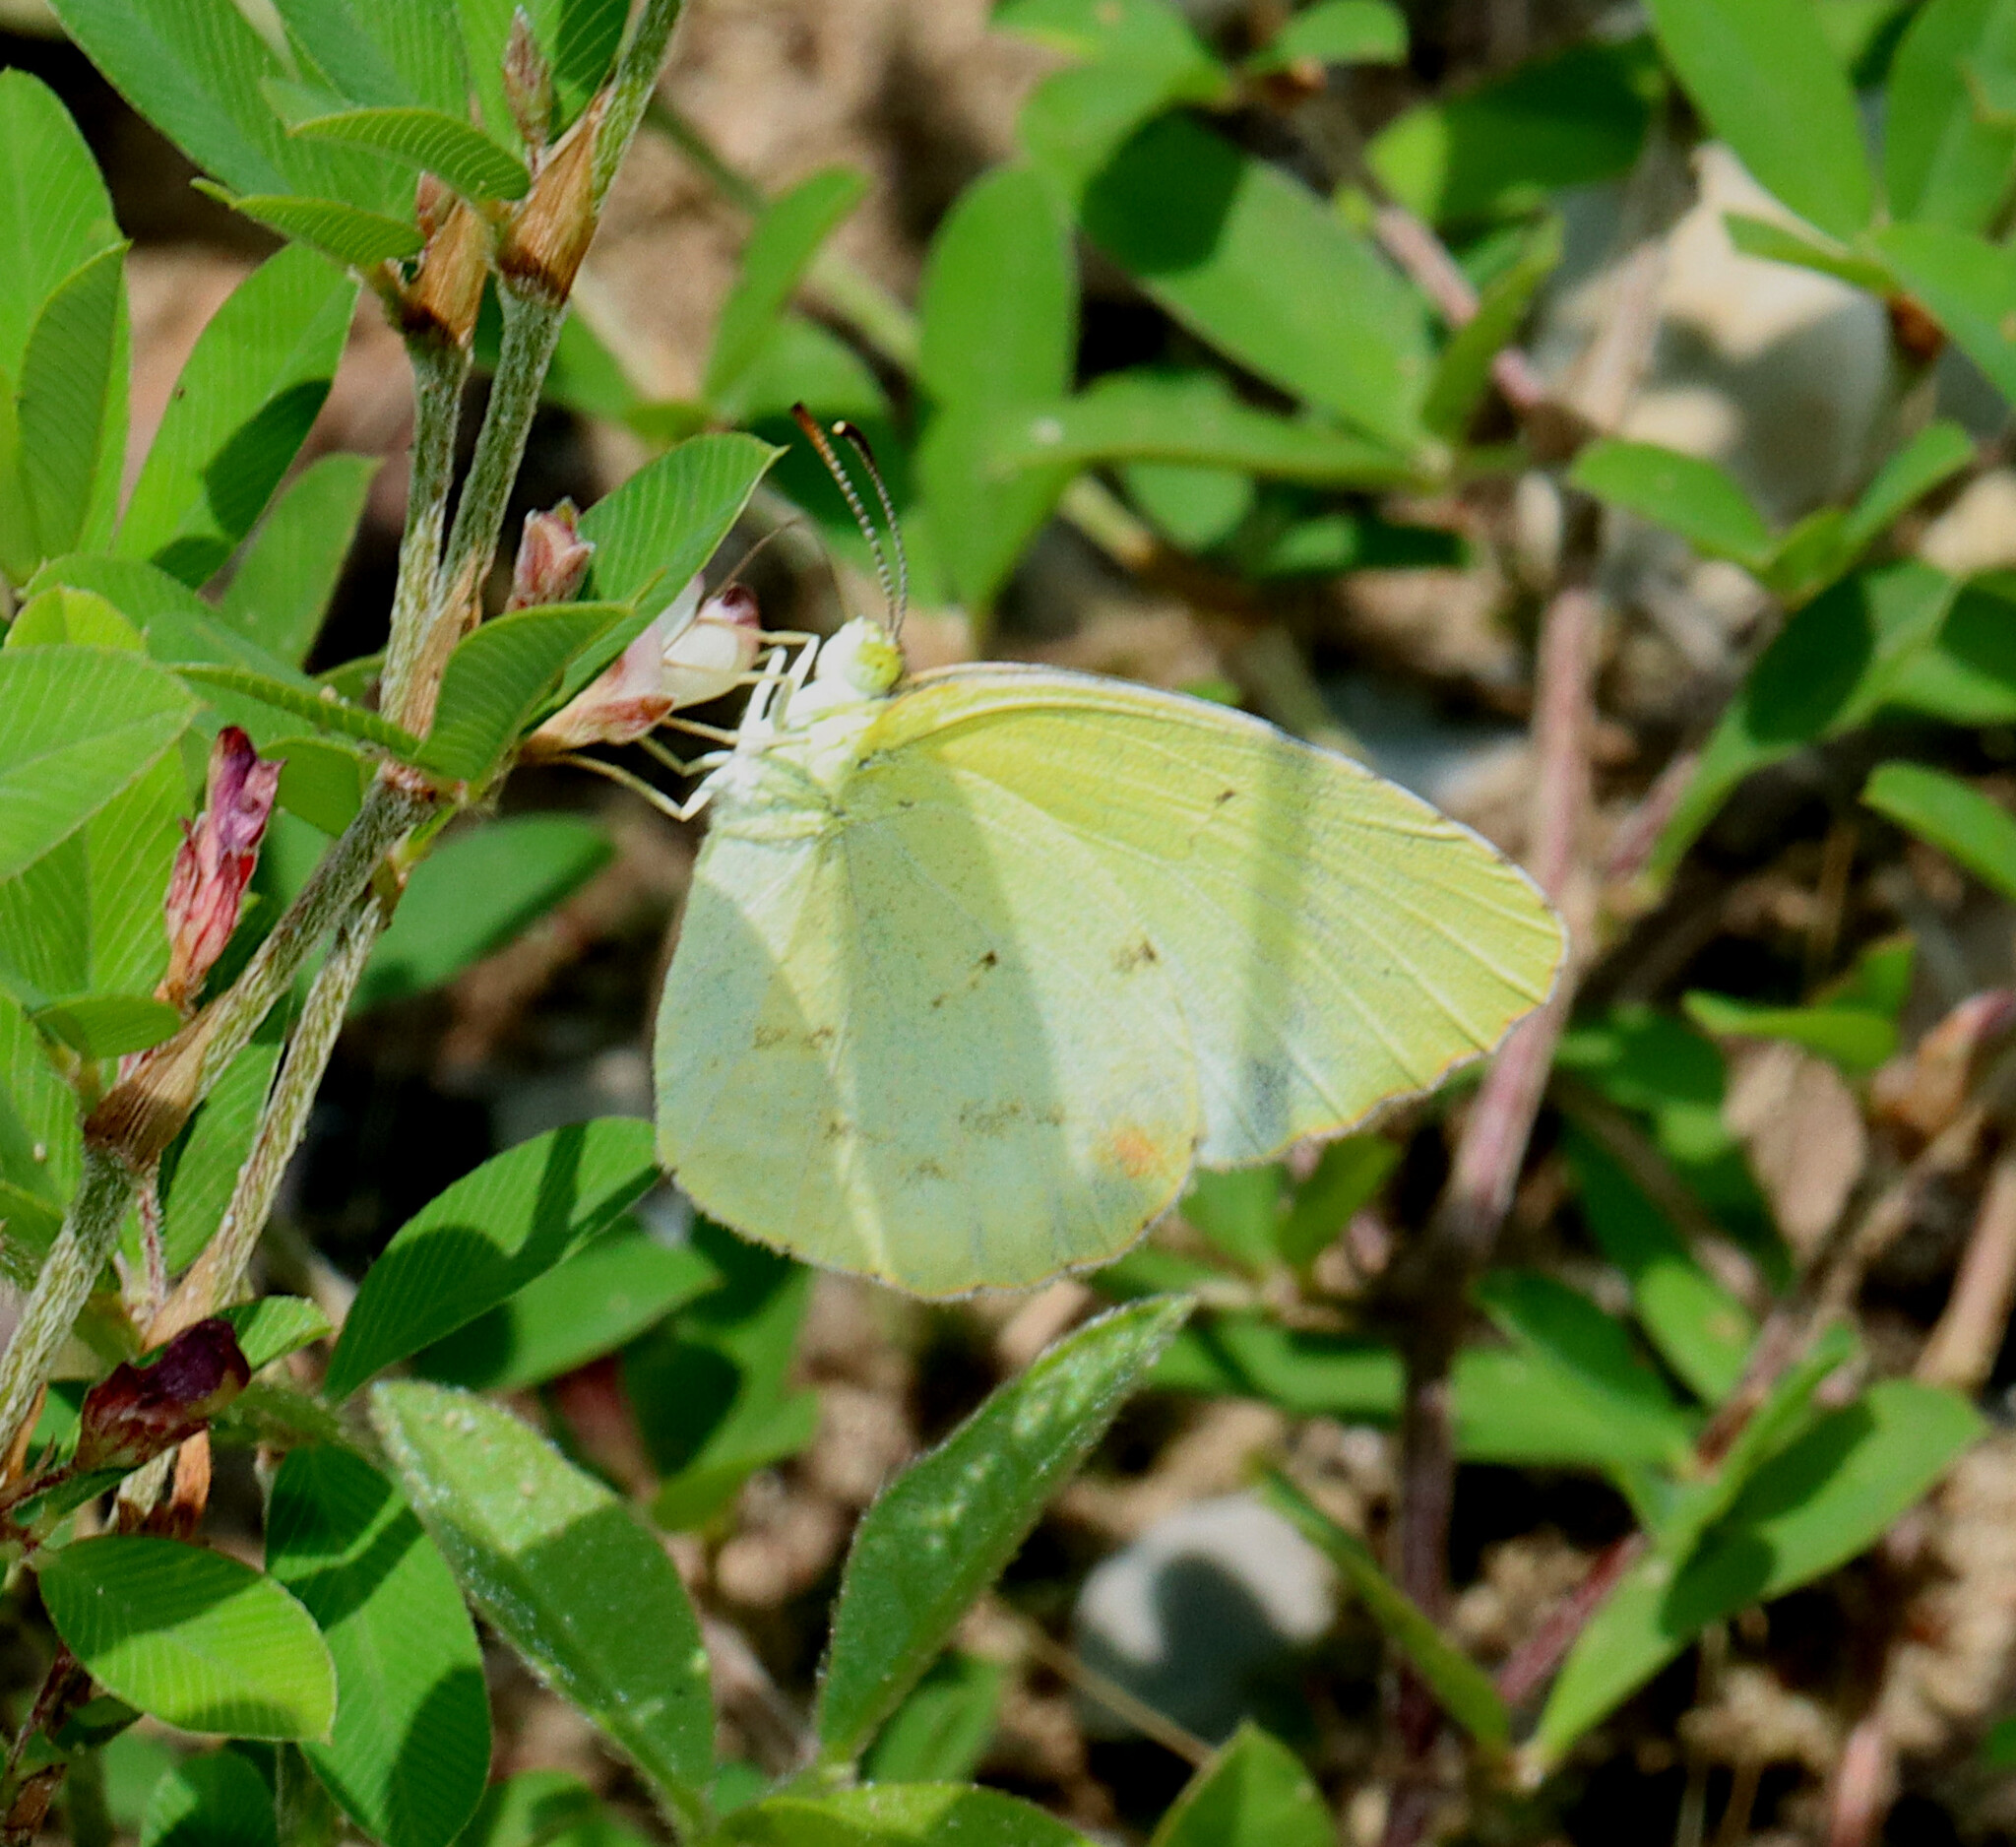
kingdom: Animalia
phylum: Arthropoda
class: Insecta
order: Lepidoptera
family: Pieridae
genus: Pyrisitia
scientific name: Pyrisitia lisa
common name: Little yellow
